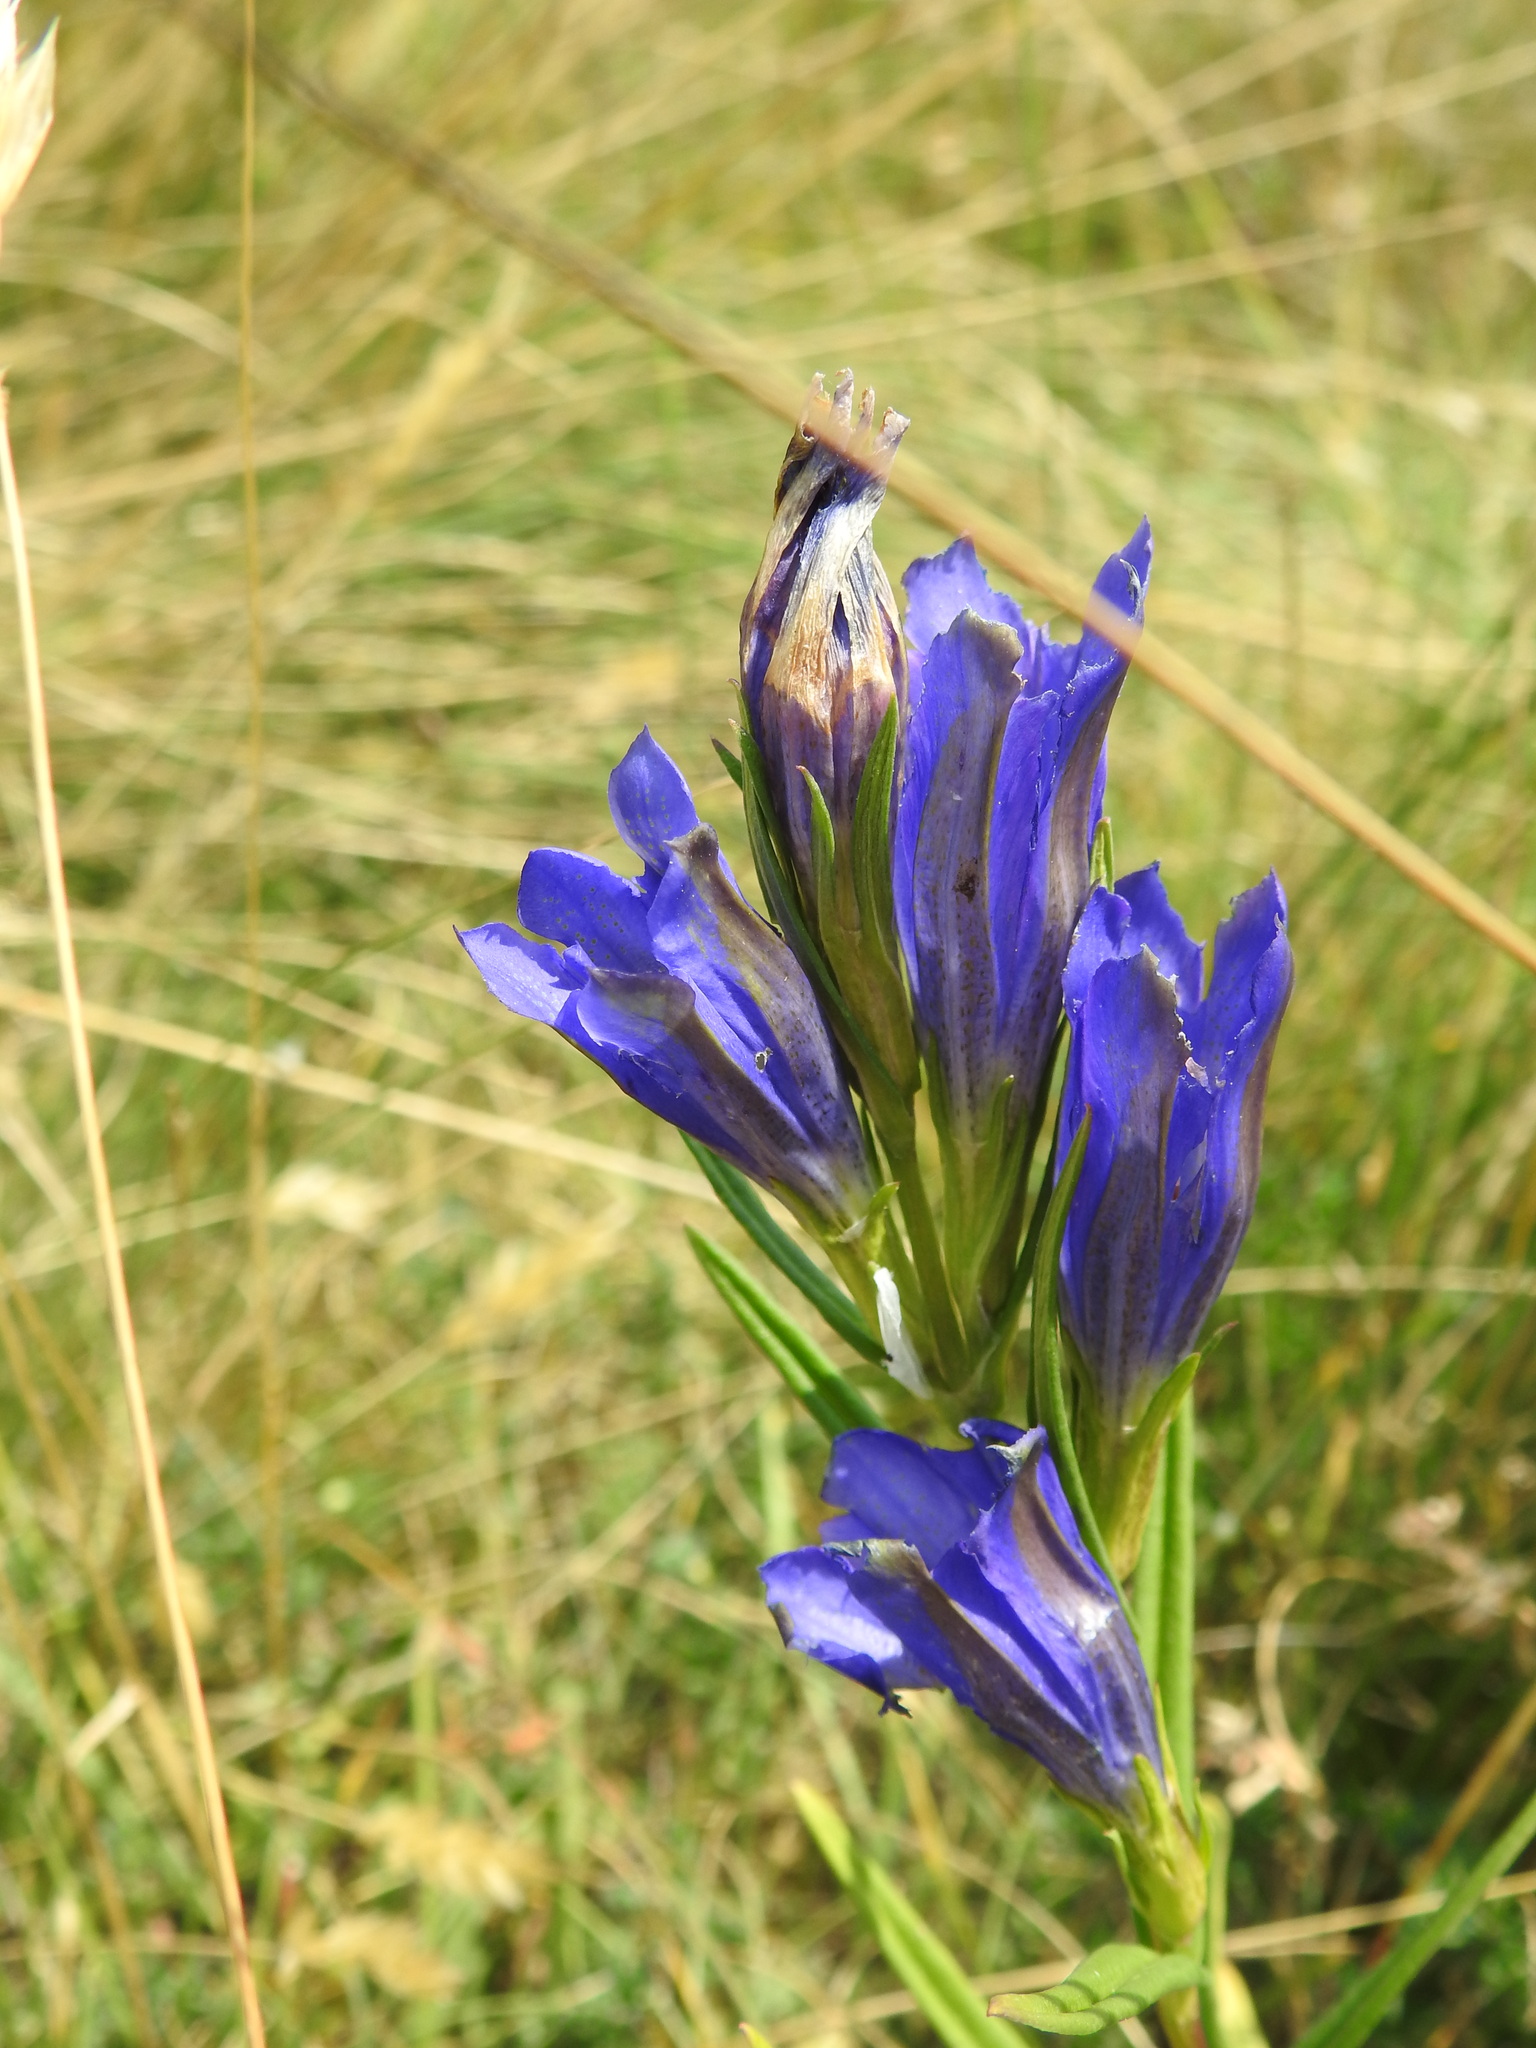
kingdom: Plantae
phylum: Tracheophyta
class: Magnoliopsida
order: Gentianales
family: Gentianaceae
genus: Gentiana
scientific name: Gentiana pneumonanthe
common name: Marsh gentian
